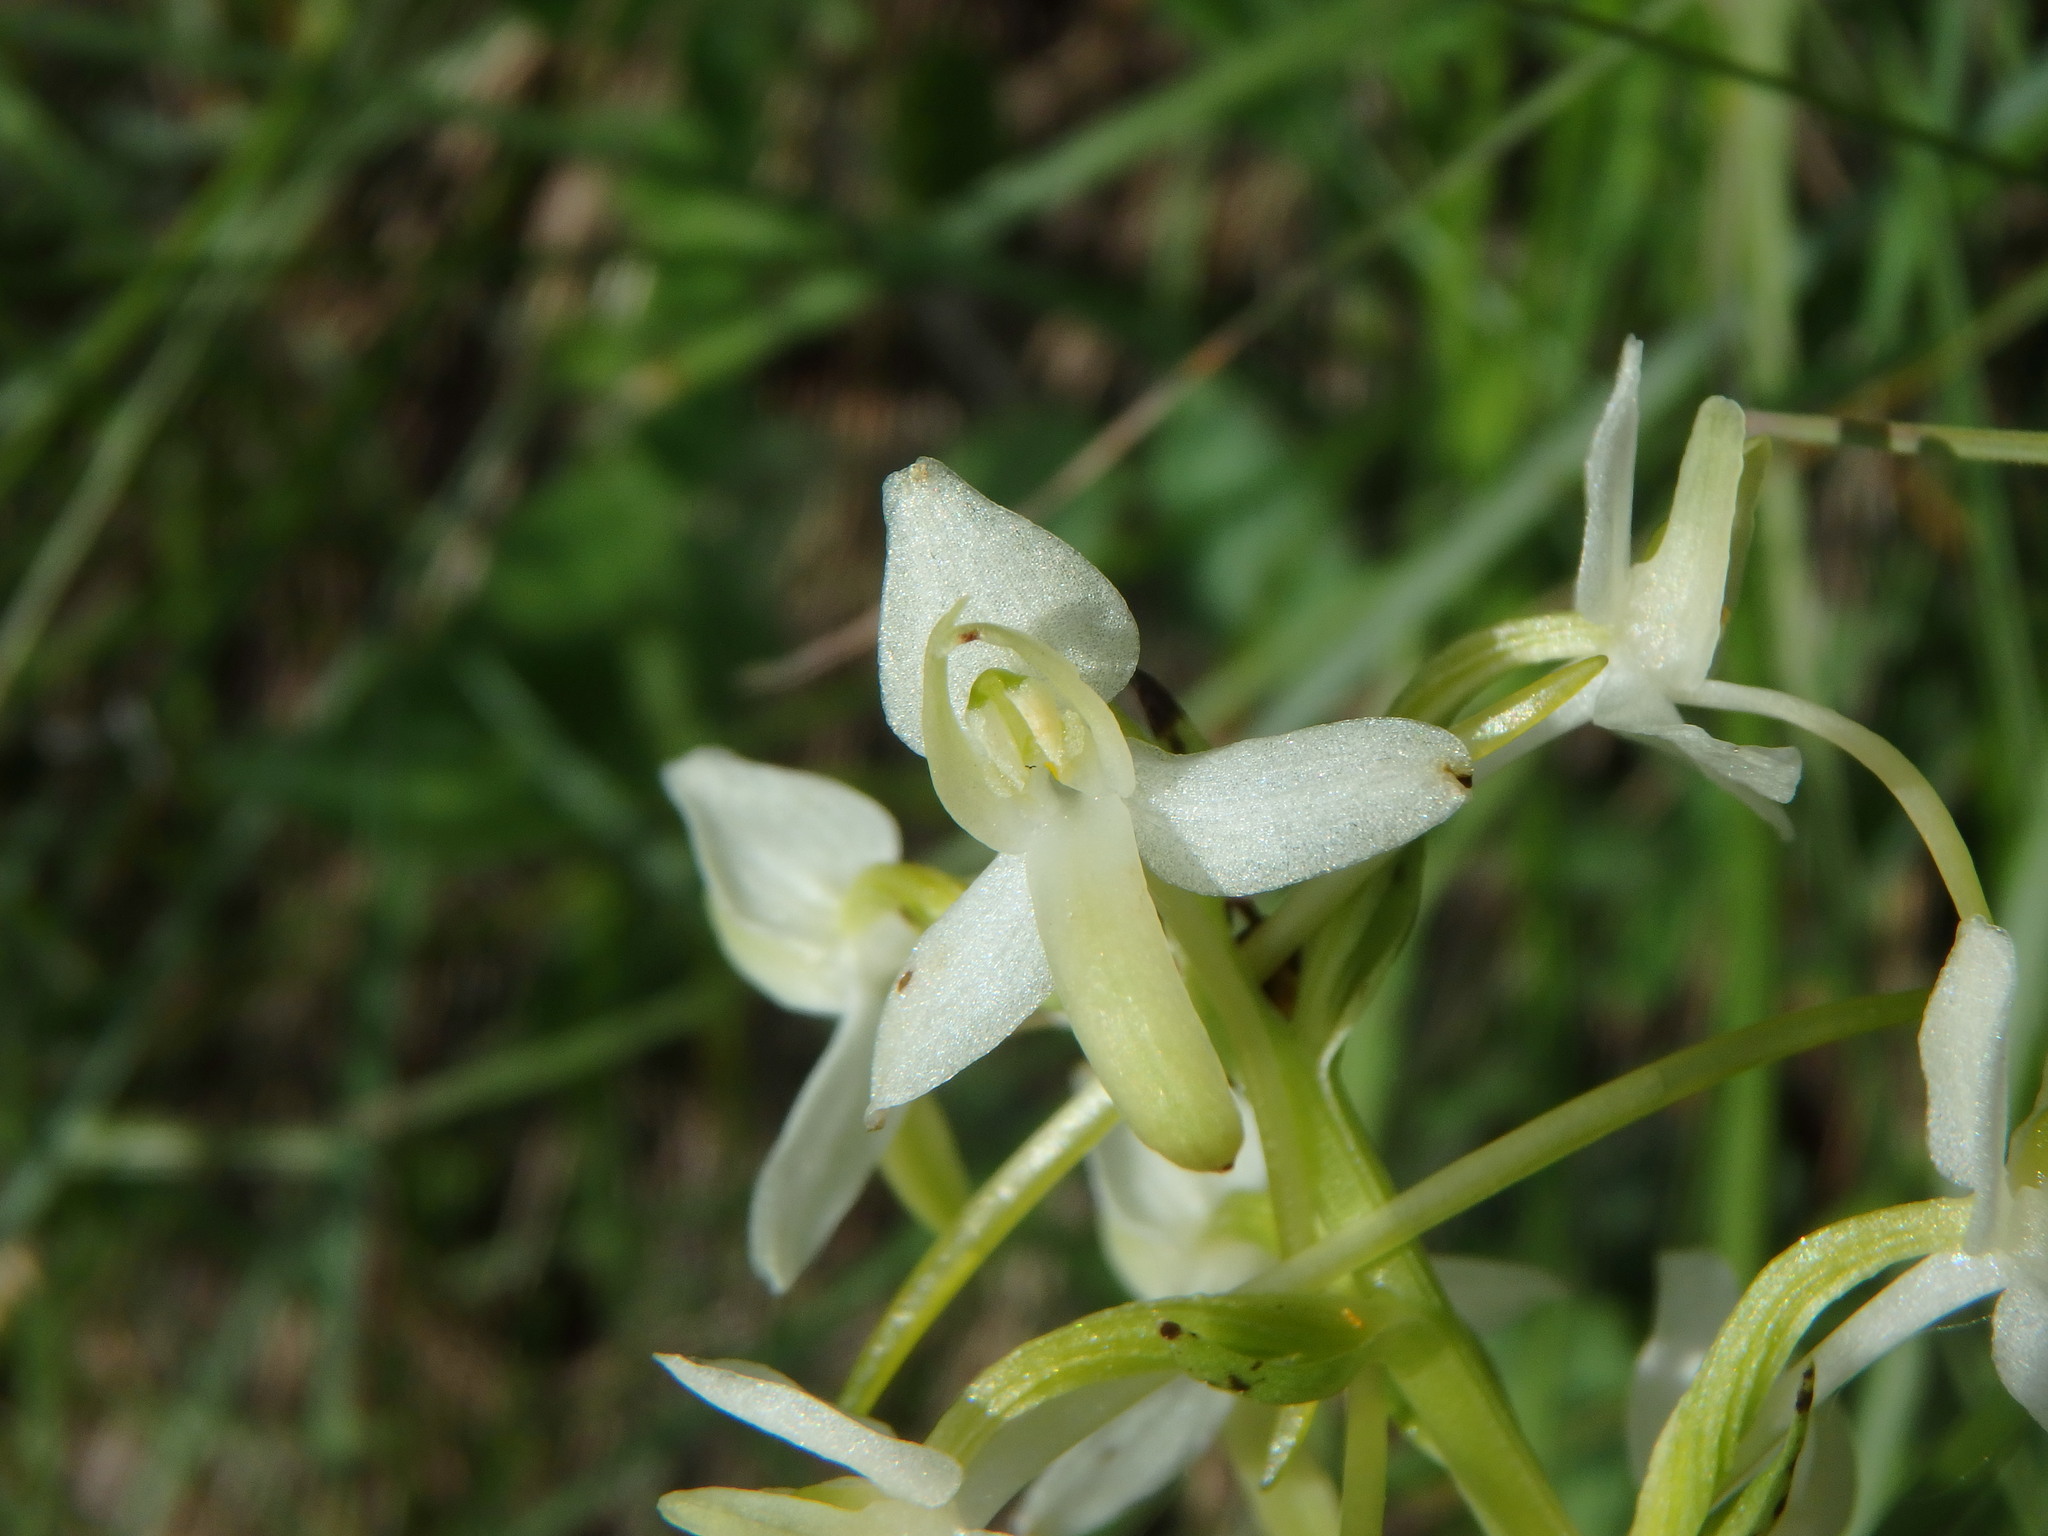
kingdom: Plantae
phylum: Tracheophyta
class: Liliopsida
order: Asparagales
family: Orchidaceae
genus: Platanthera
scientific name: Platanthera bifolia
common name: Lesser butterfly-orchid
